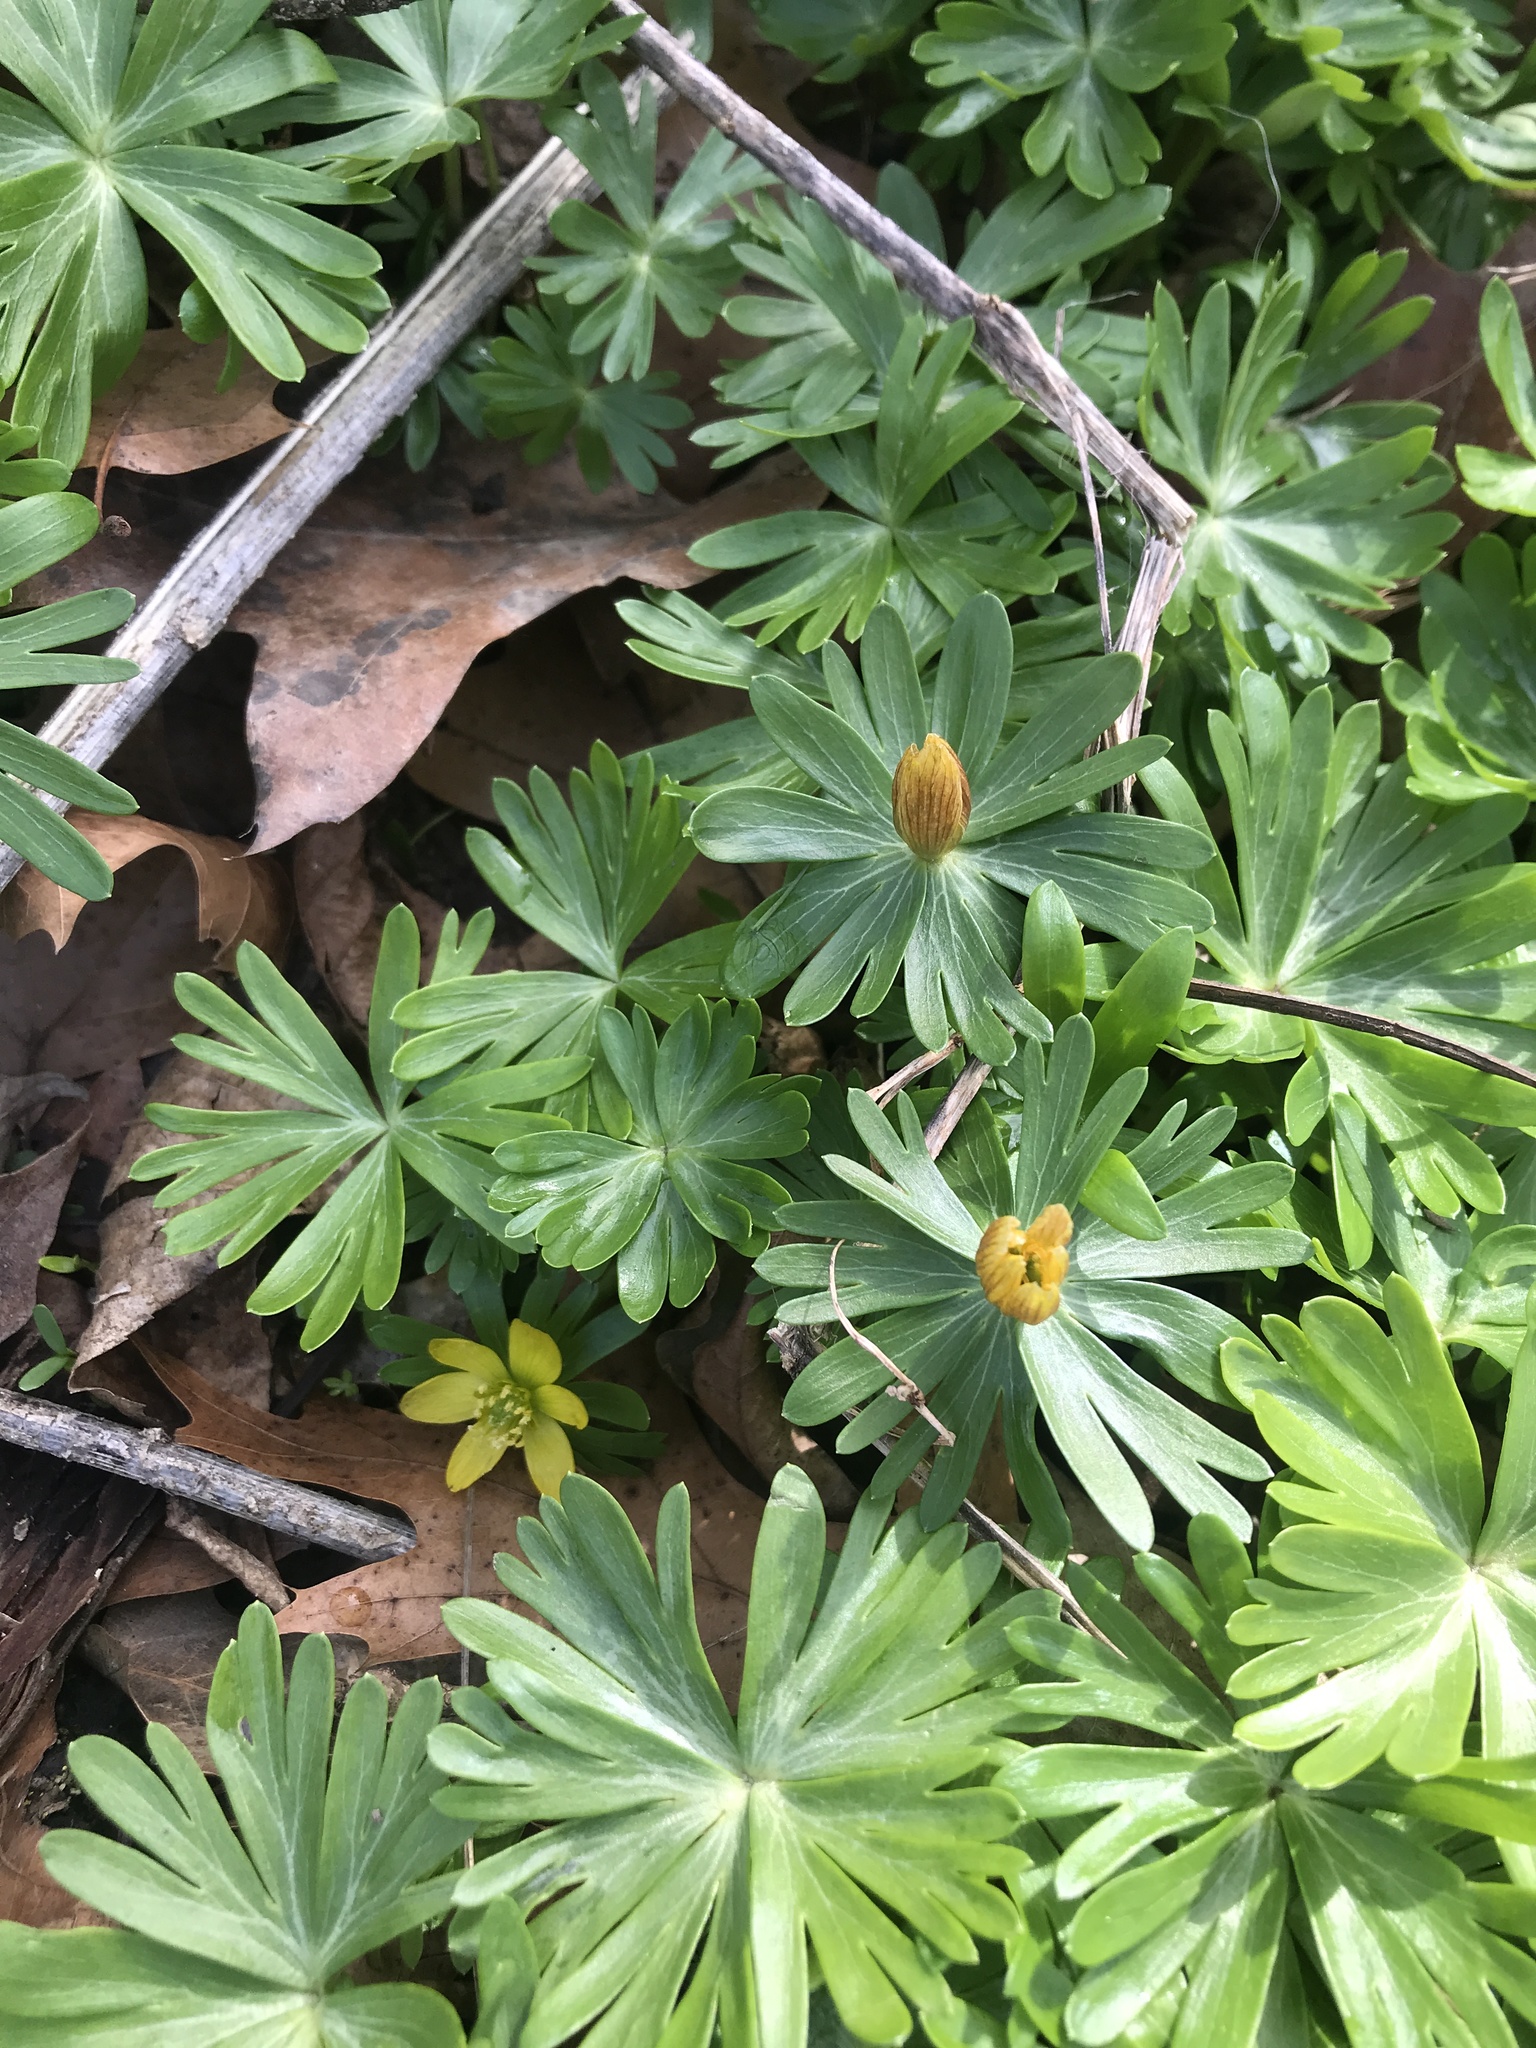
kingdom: Plantae
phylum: Tracheophyta
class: Magnoliopsida
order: Ranunculales
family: Ranunculaceae
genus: Eranthis
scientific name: Eranthis hyemalis
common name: Winter aconite
